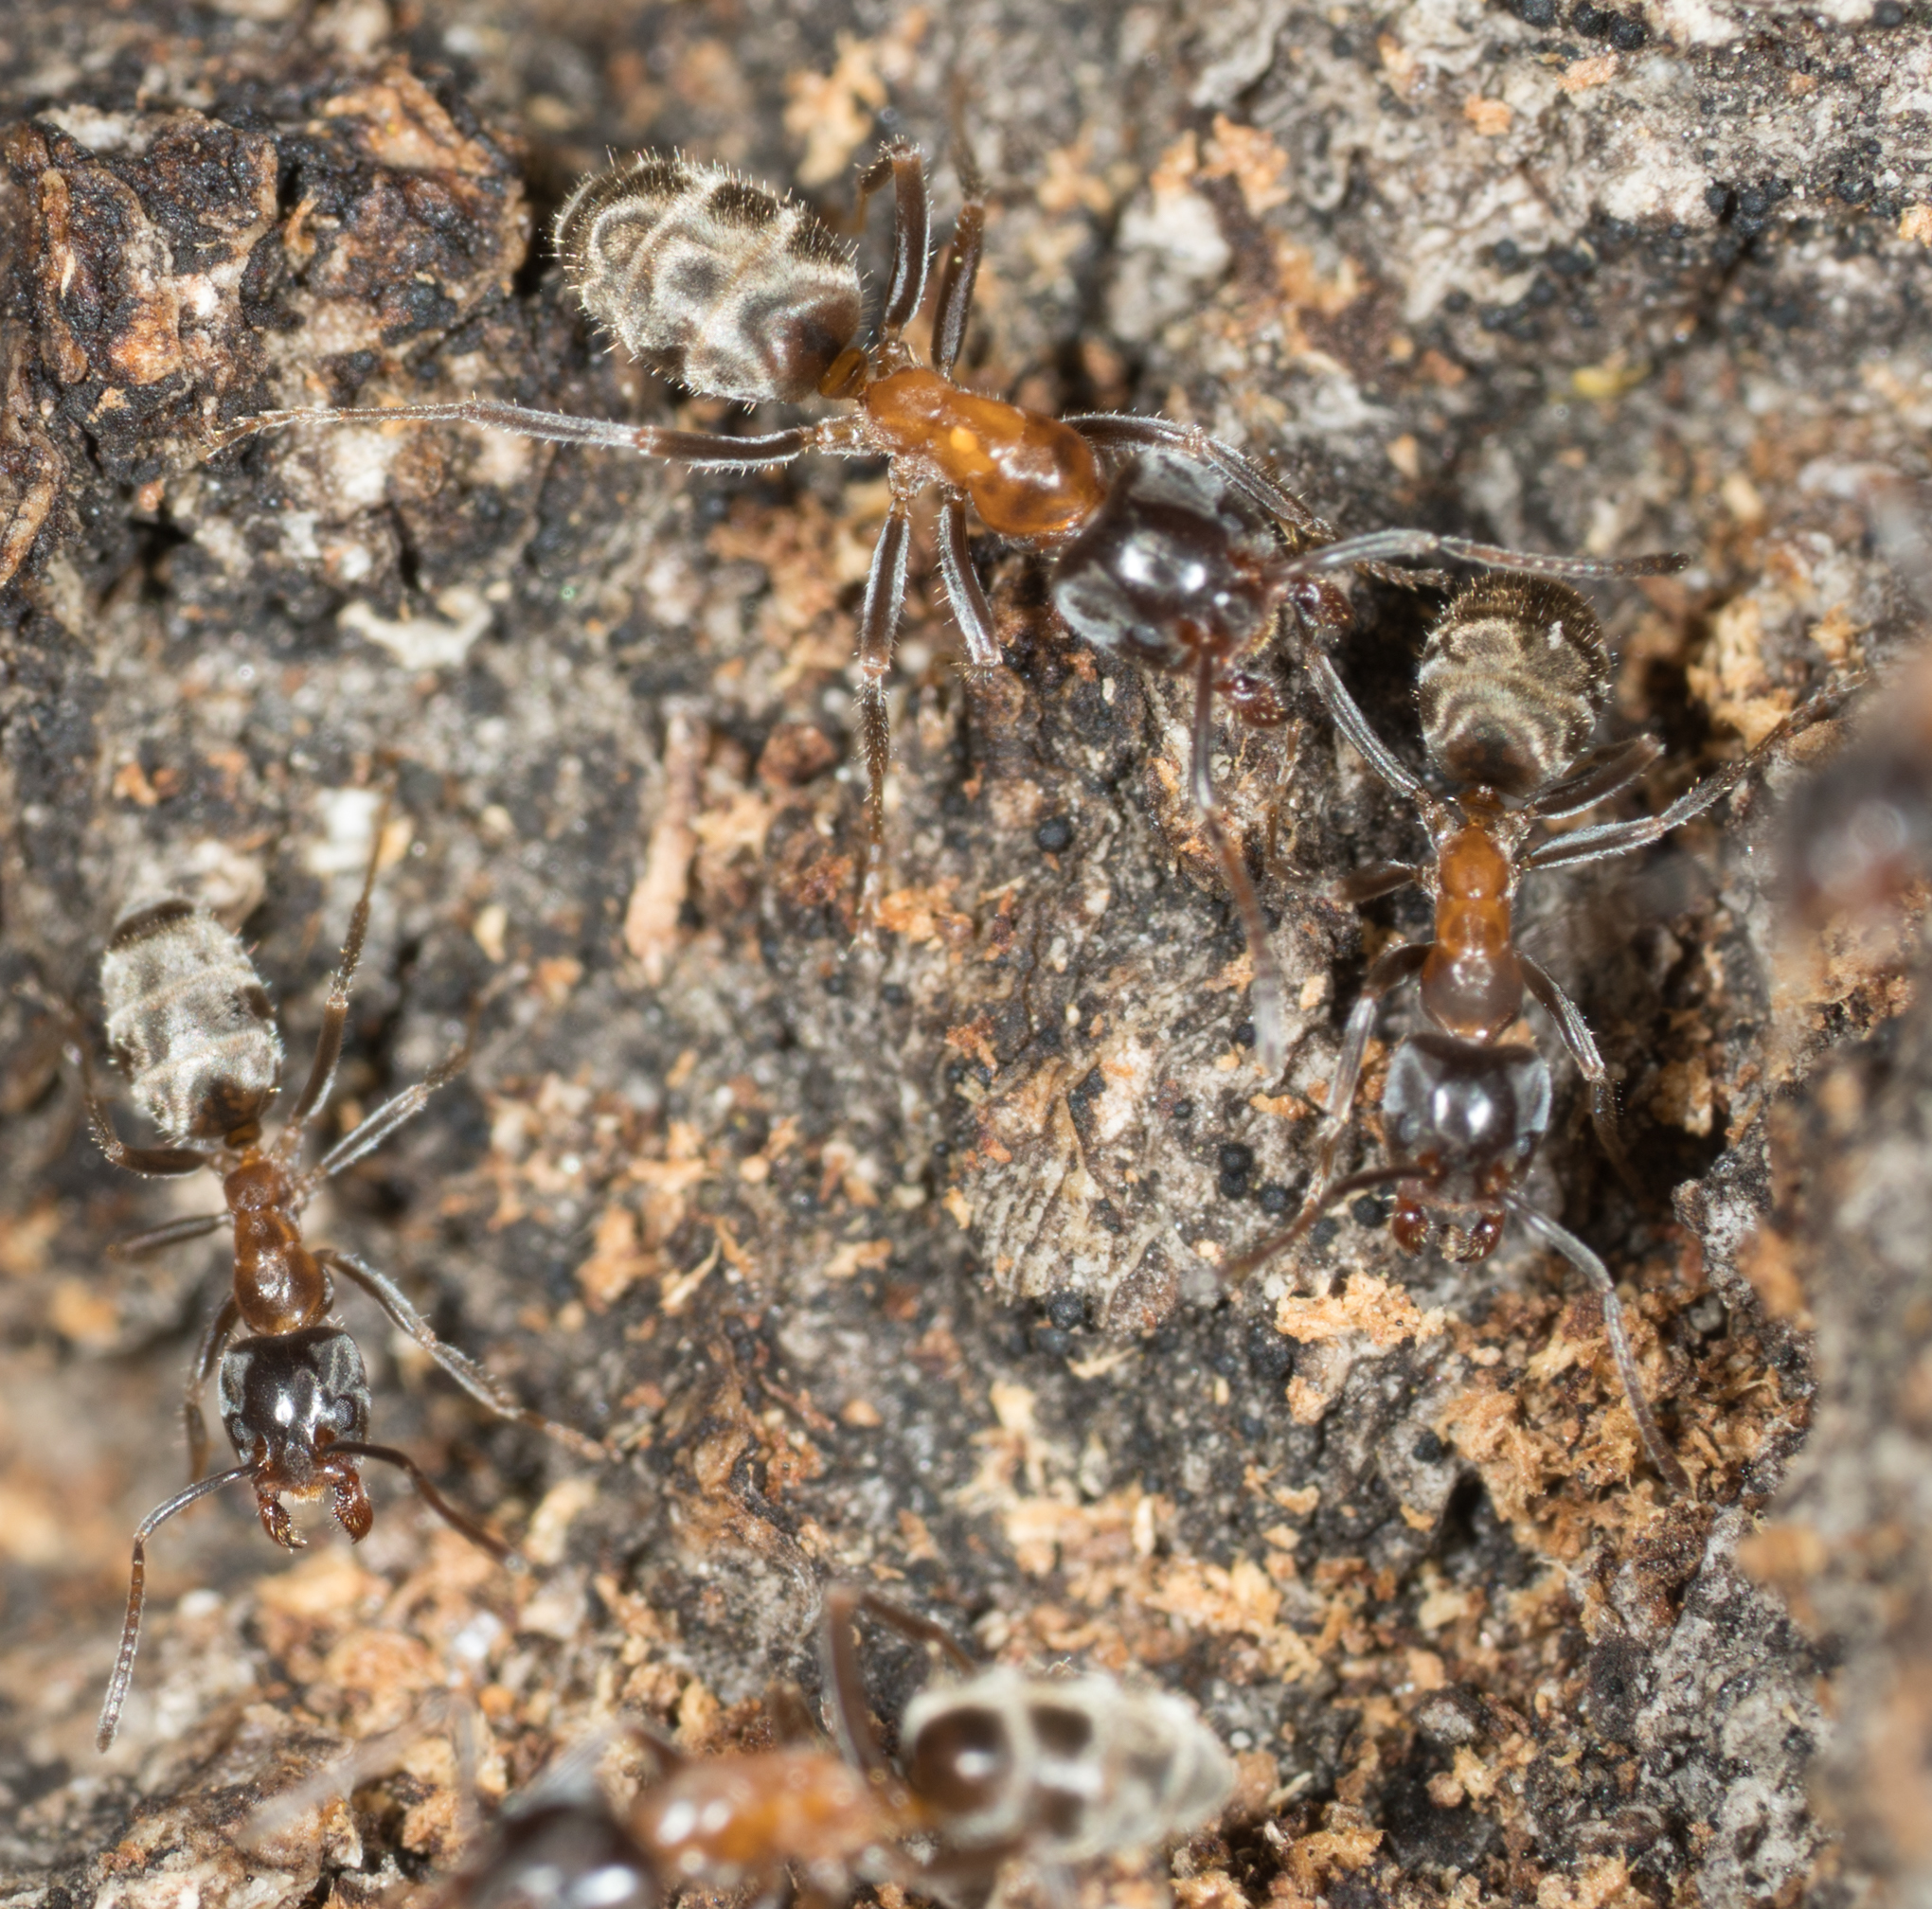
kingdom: Animalia
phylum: Arthropoda
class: Insecta
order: Hymenoptera
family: Formicidae
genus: Liometopum
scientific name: Liometopum occidentale
